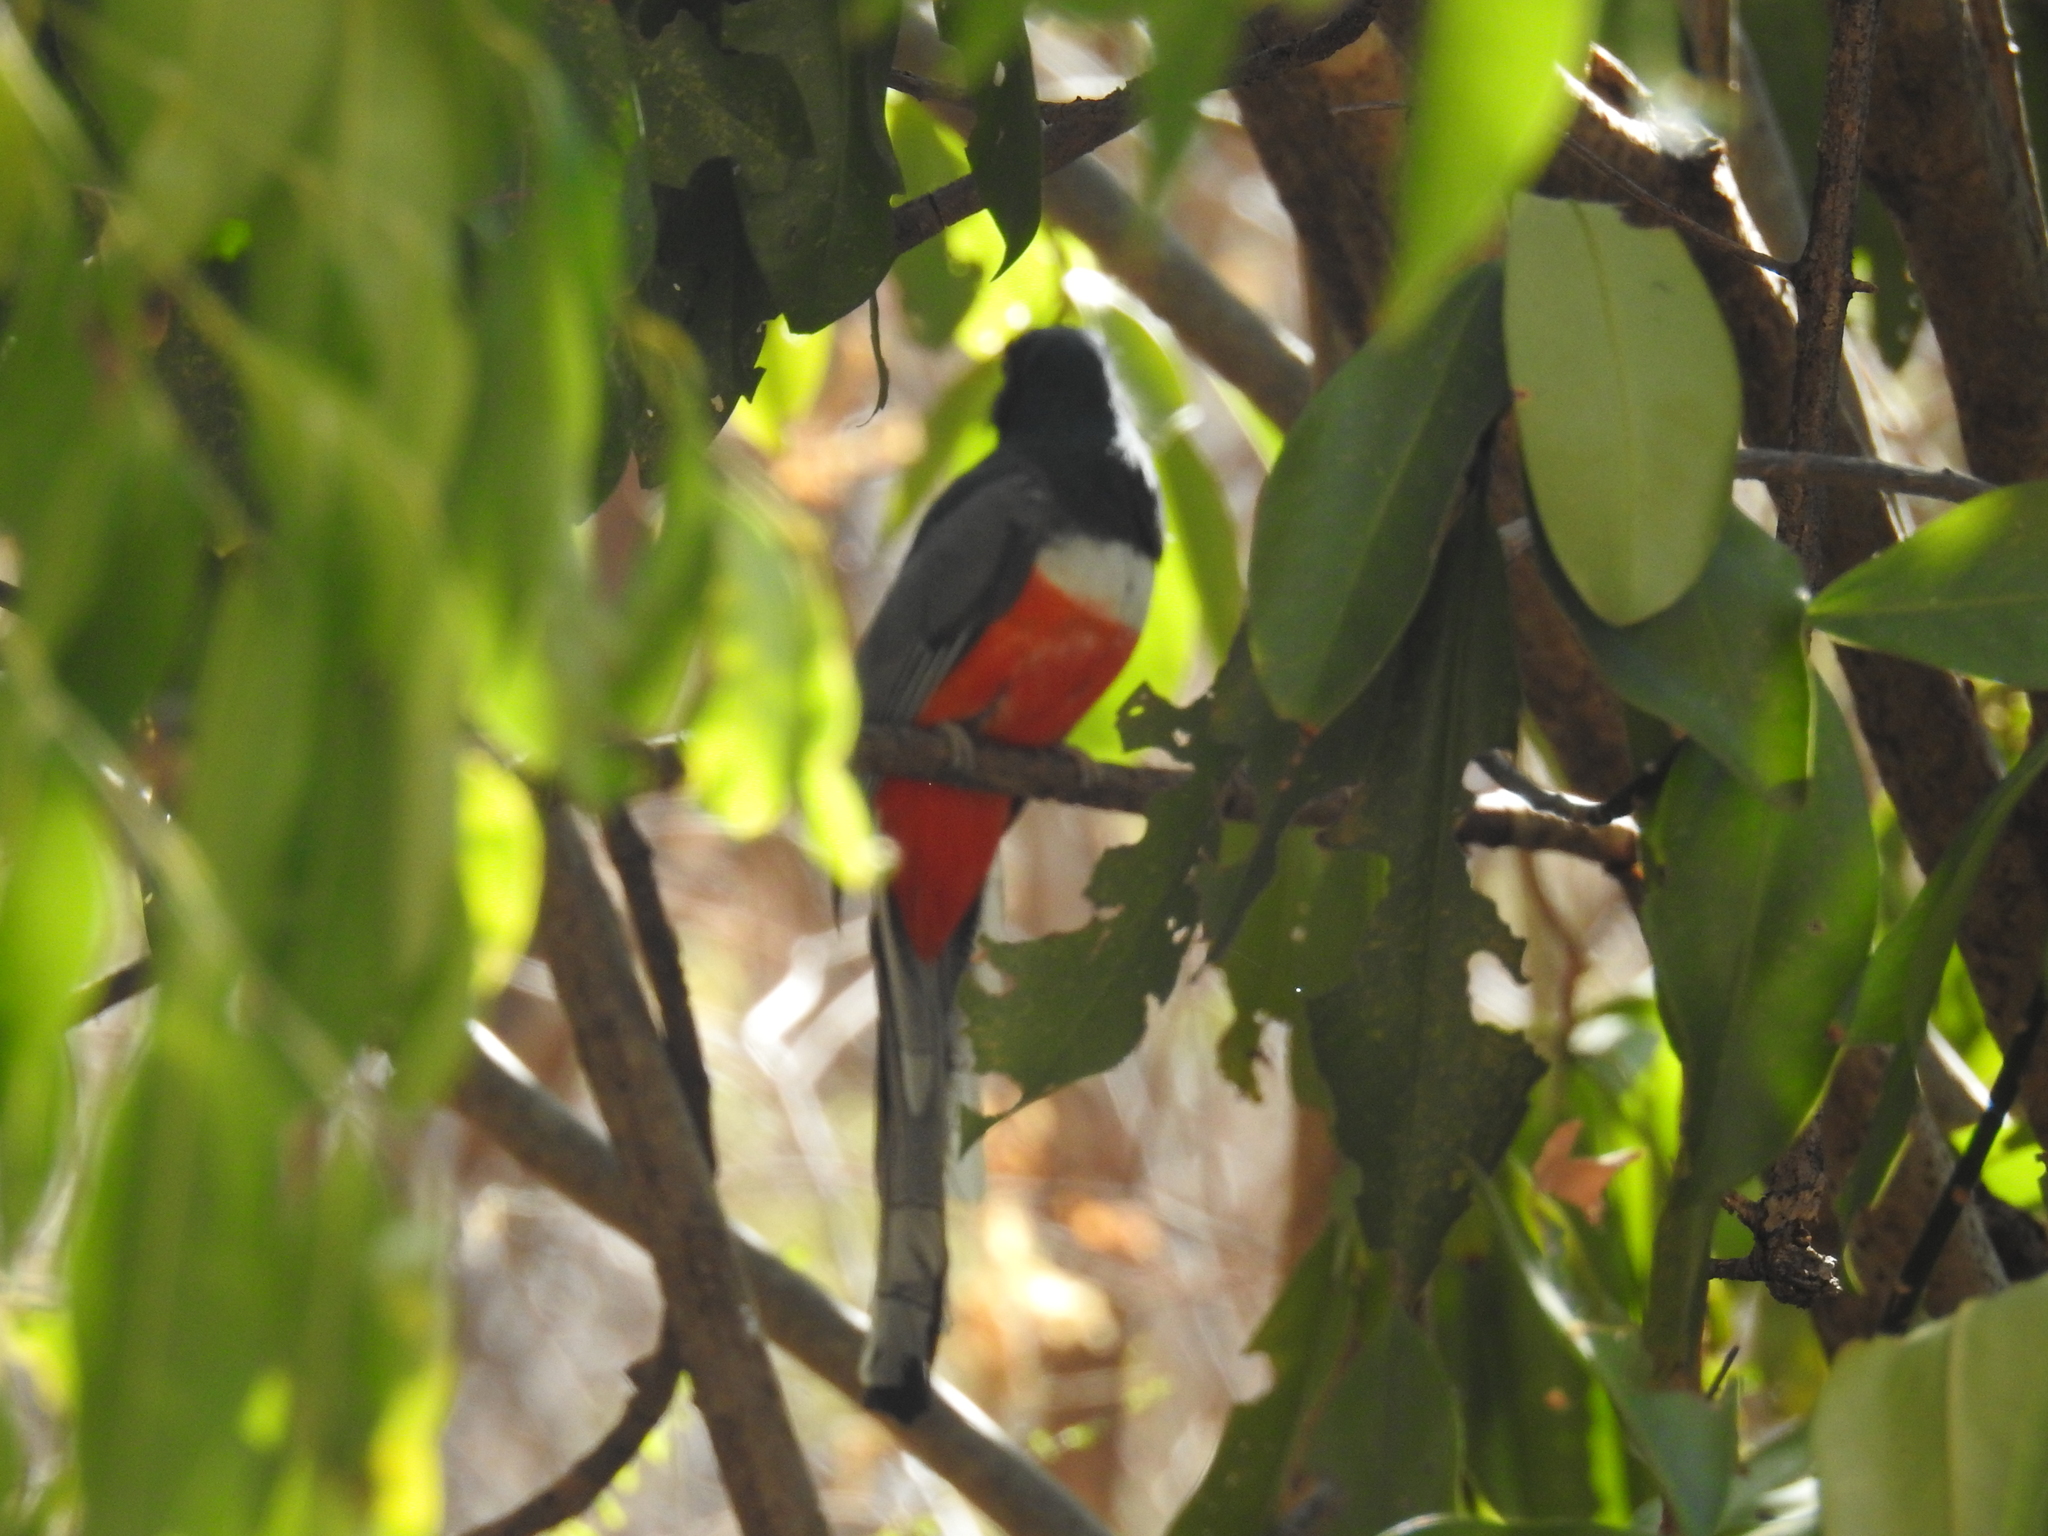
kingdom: Animalia
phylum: Chordata
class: Aves
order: Trogoniformes
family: Trogonidae
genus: Trogon
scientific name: Trogon elegans
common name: Elegant trogon
